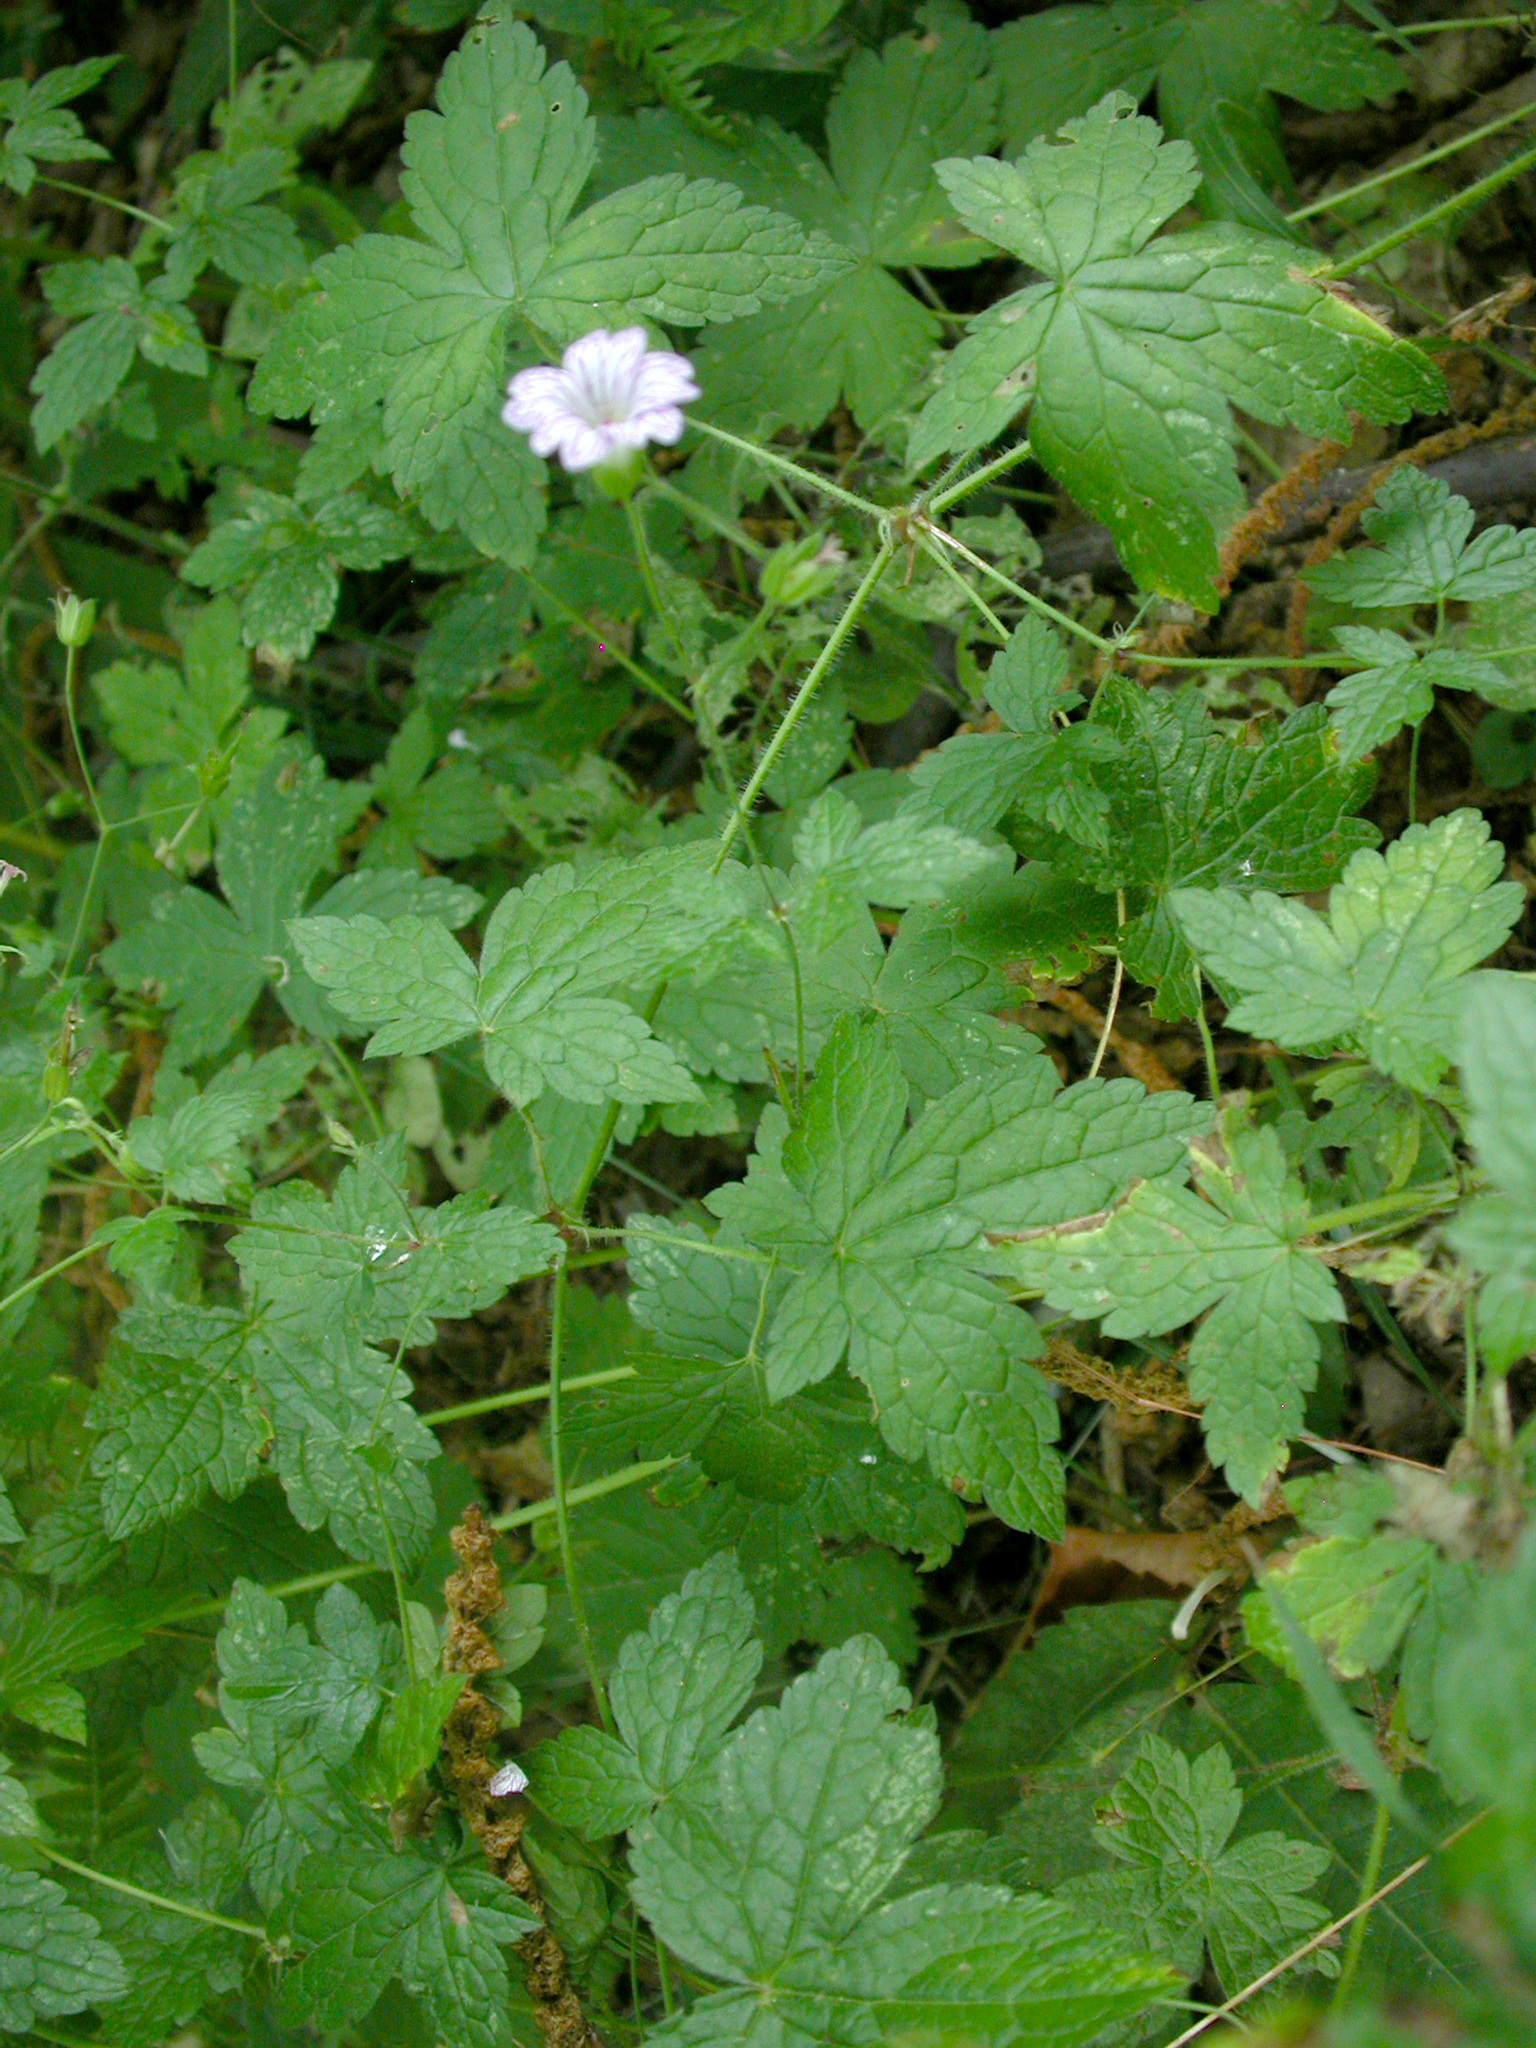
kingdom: Plantae
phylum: Tracheophyta
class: Magnoliopsida
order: Geraniales
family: Geraniaceae
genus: Geranium
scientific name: Geranium versicolor
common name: Pencilled crane's-bill
